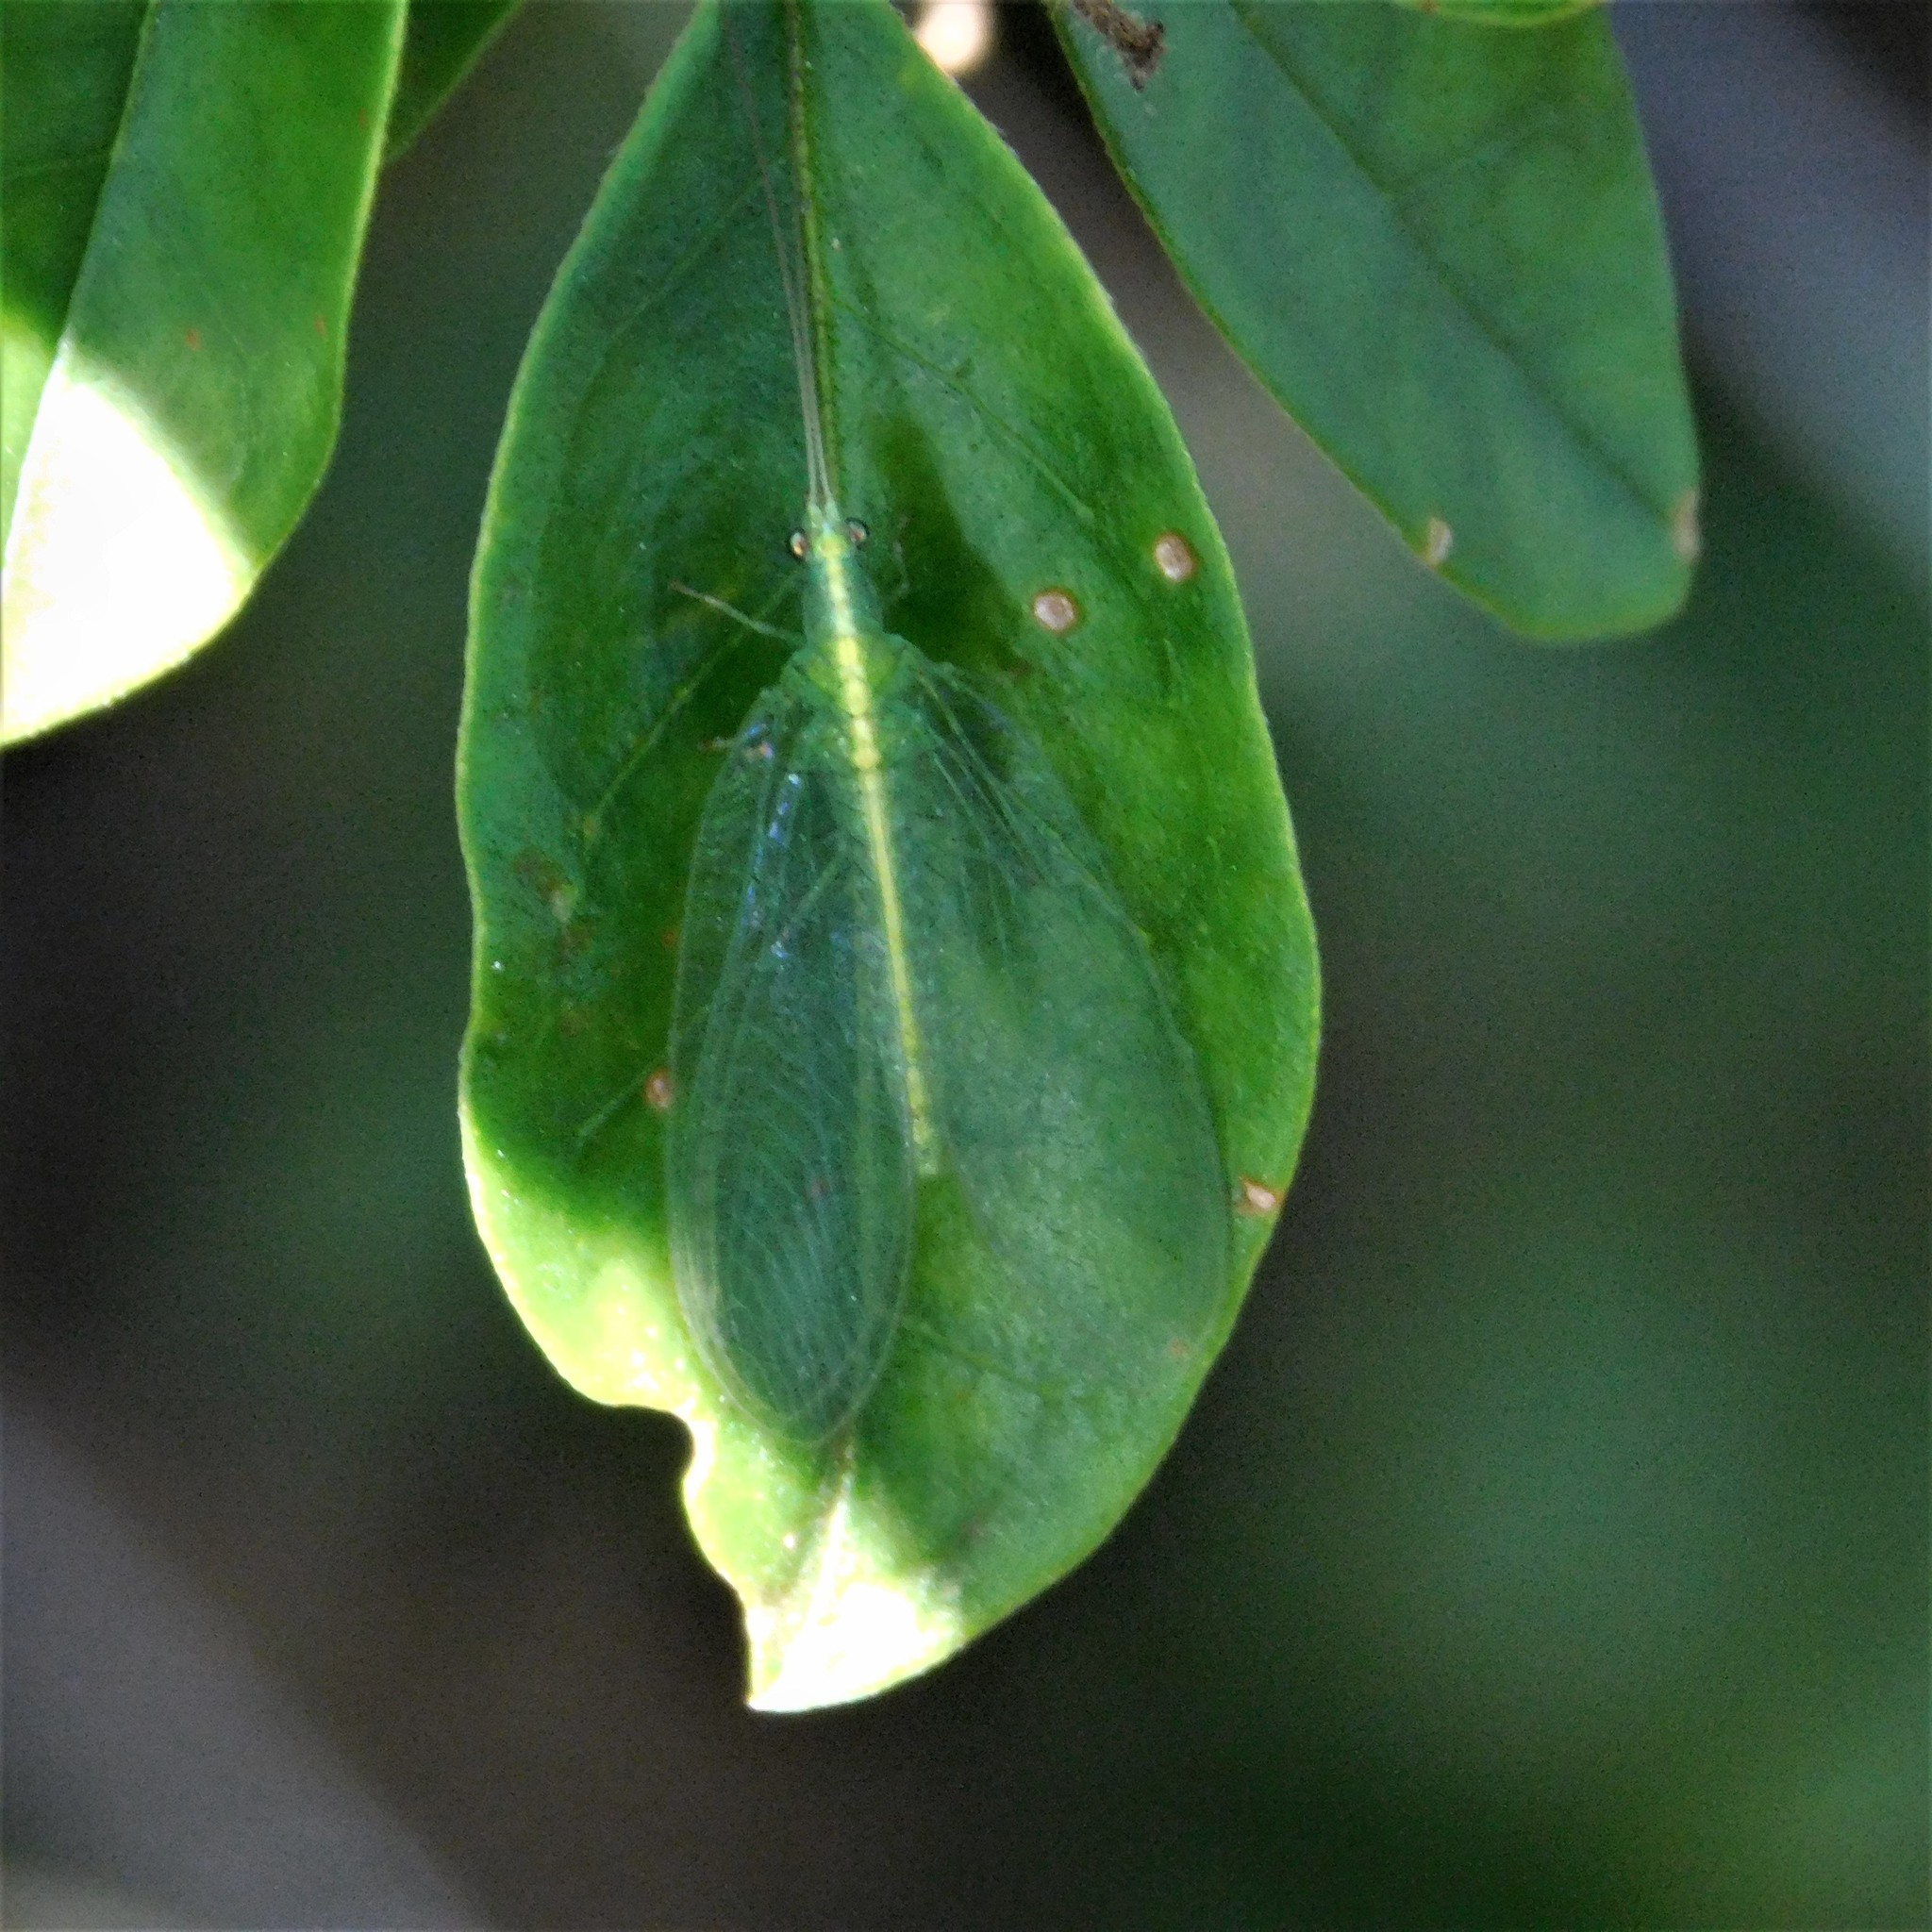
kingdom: Animalia
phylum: Arthropoda
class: Insecta
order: Neuroptera
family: Chrysopidae
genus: Mallada
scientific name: Mallada basalis
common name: Green lacewing
